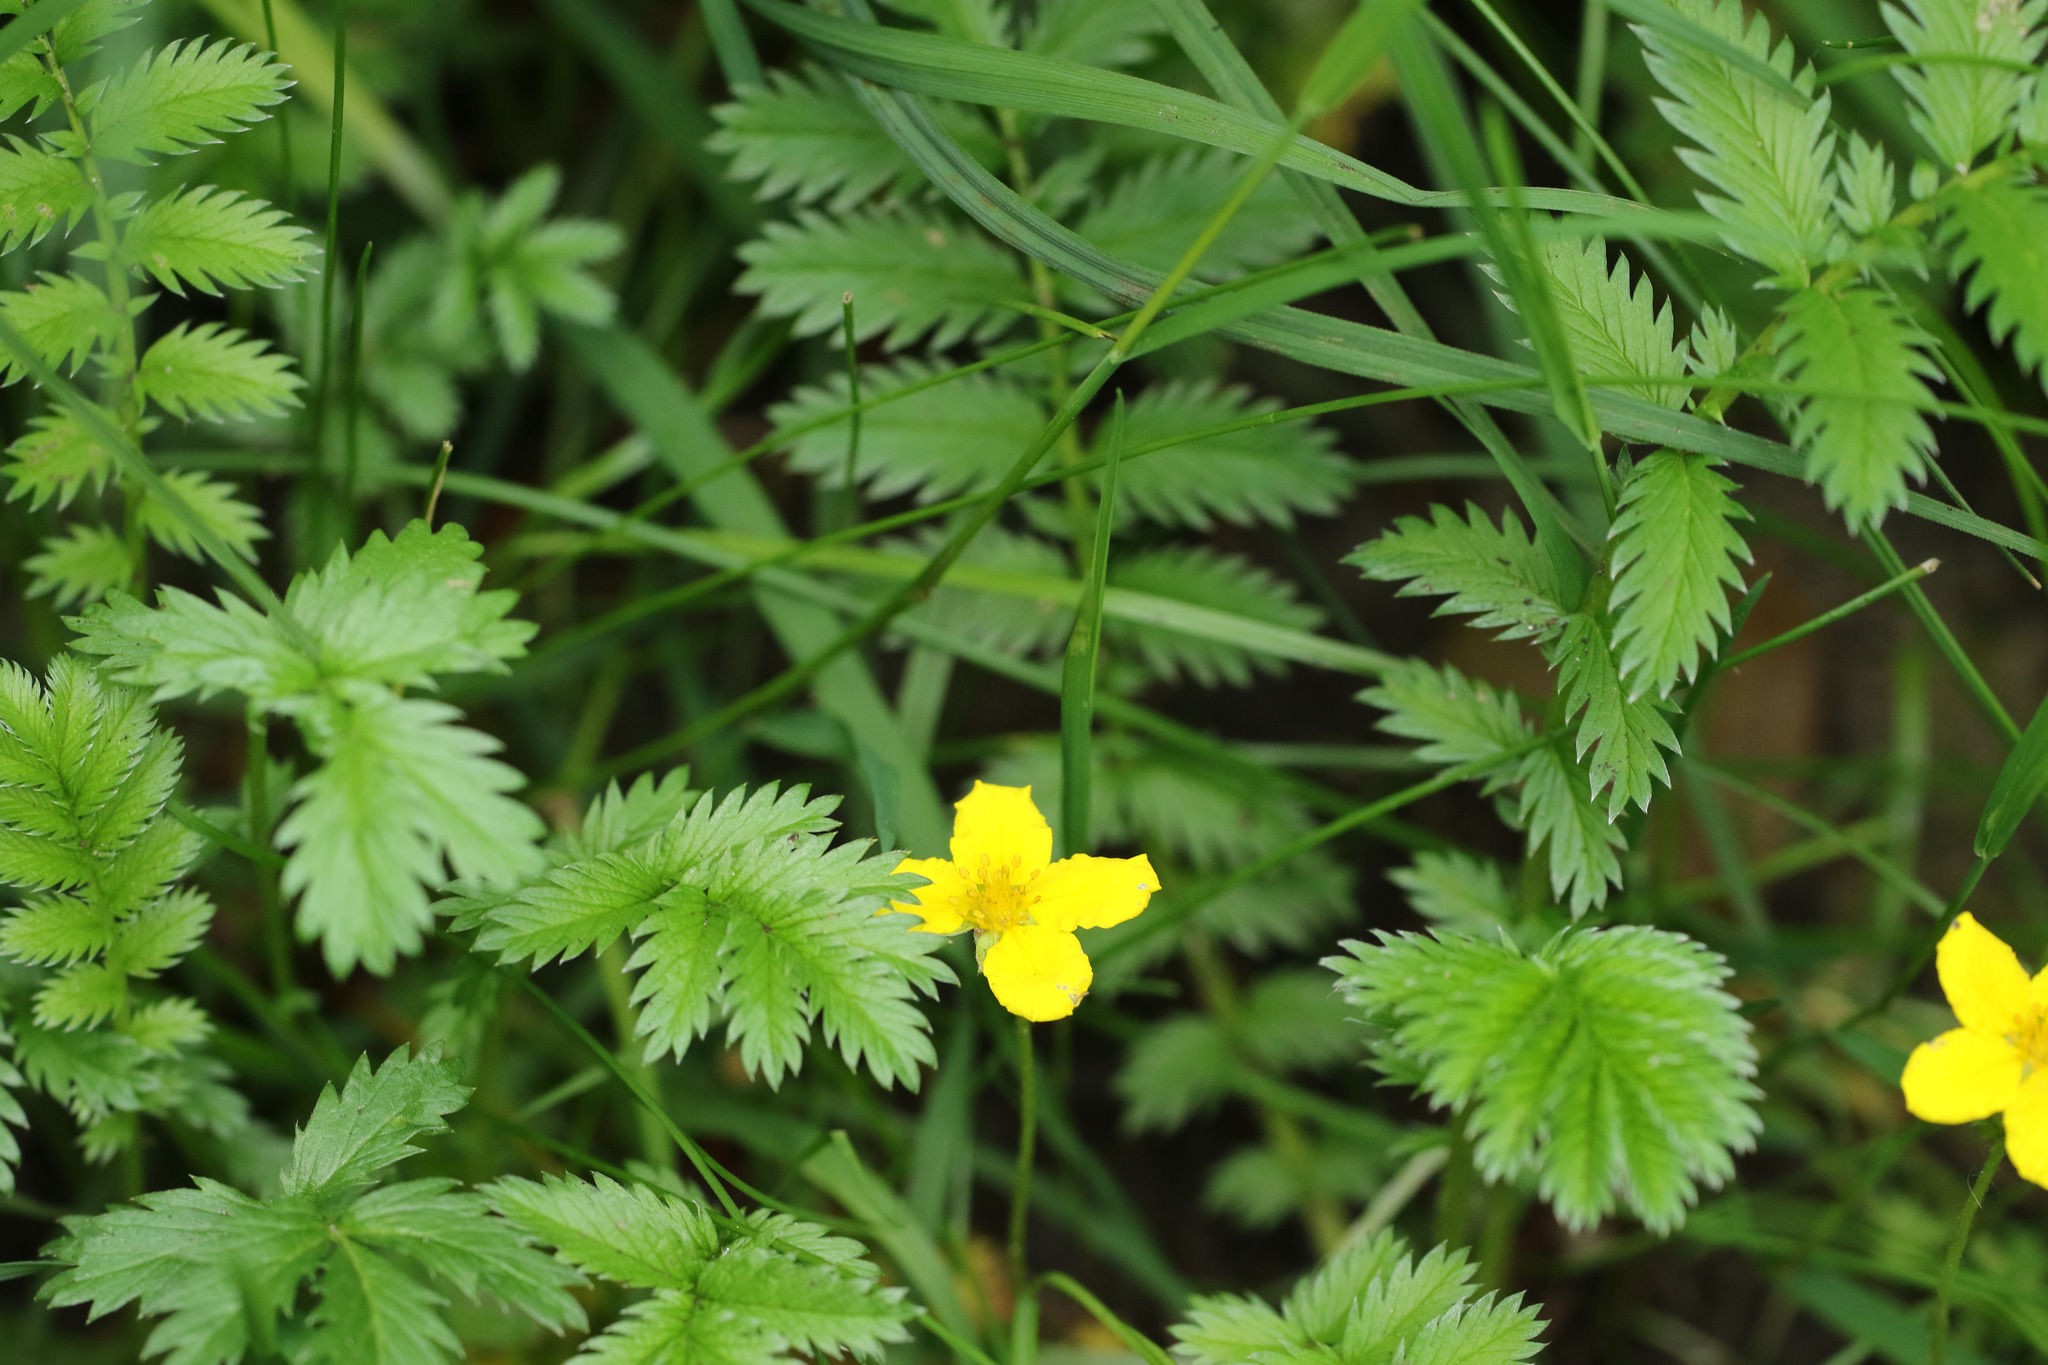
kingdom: Plantae
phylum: Tracheophyta
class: Magnoliopsida
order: Rosales
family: Rosaceae
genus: Argentina
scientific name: Argentina anserina
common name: Common silverweed
